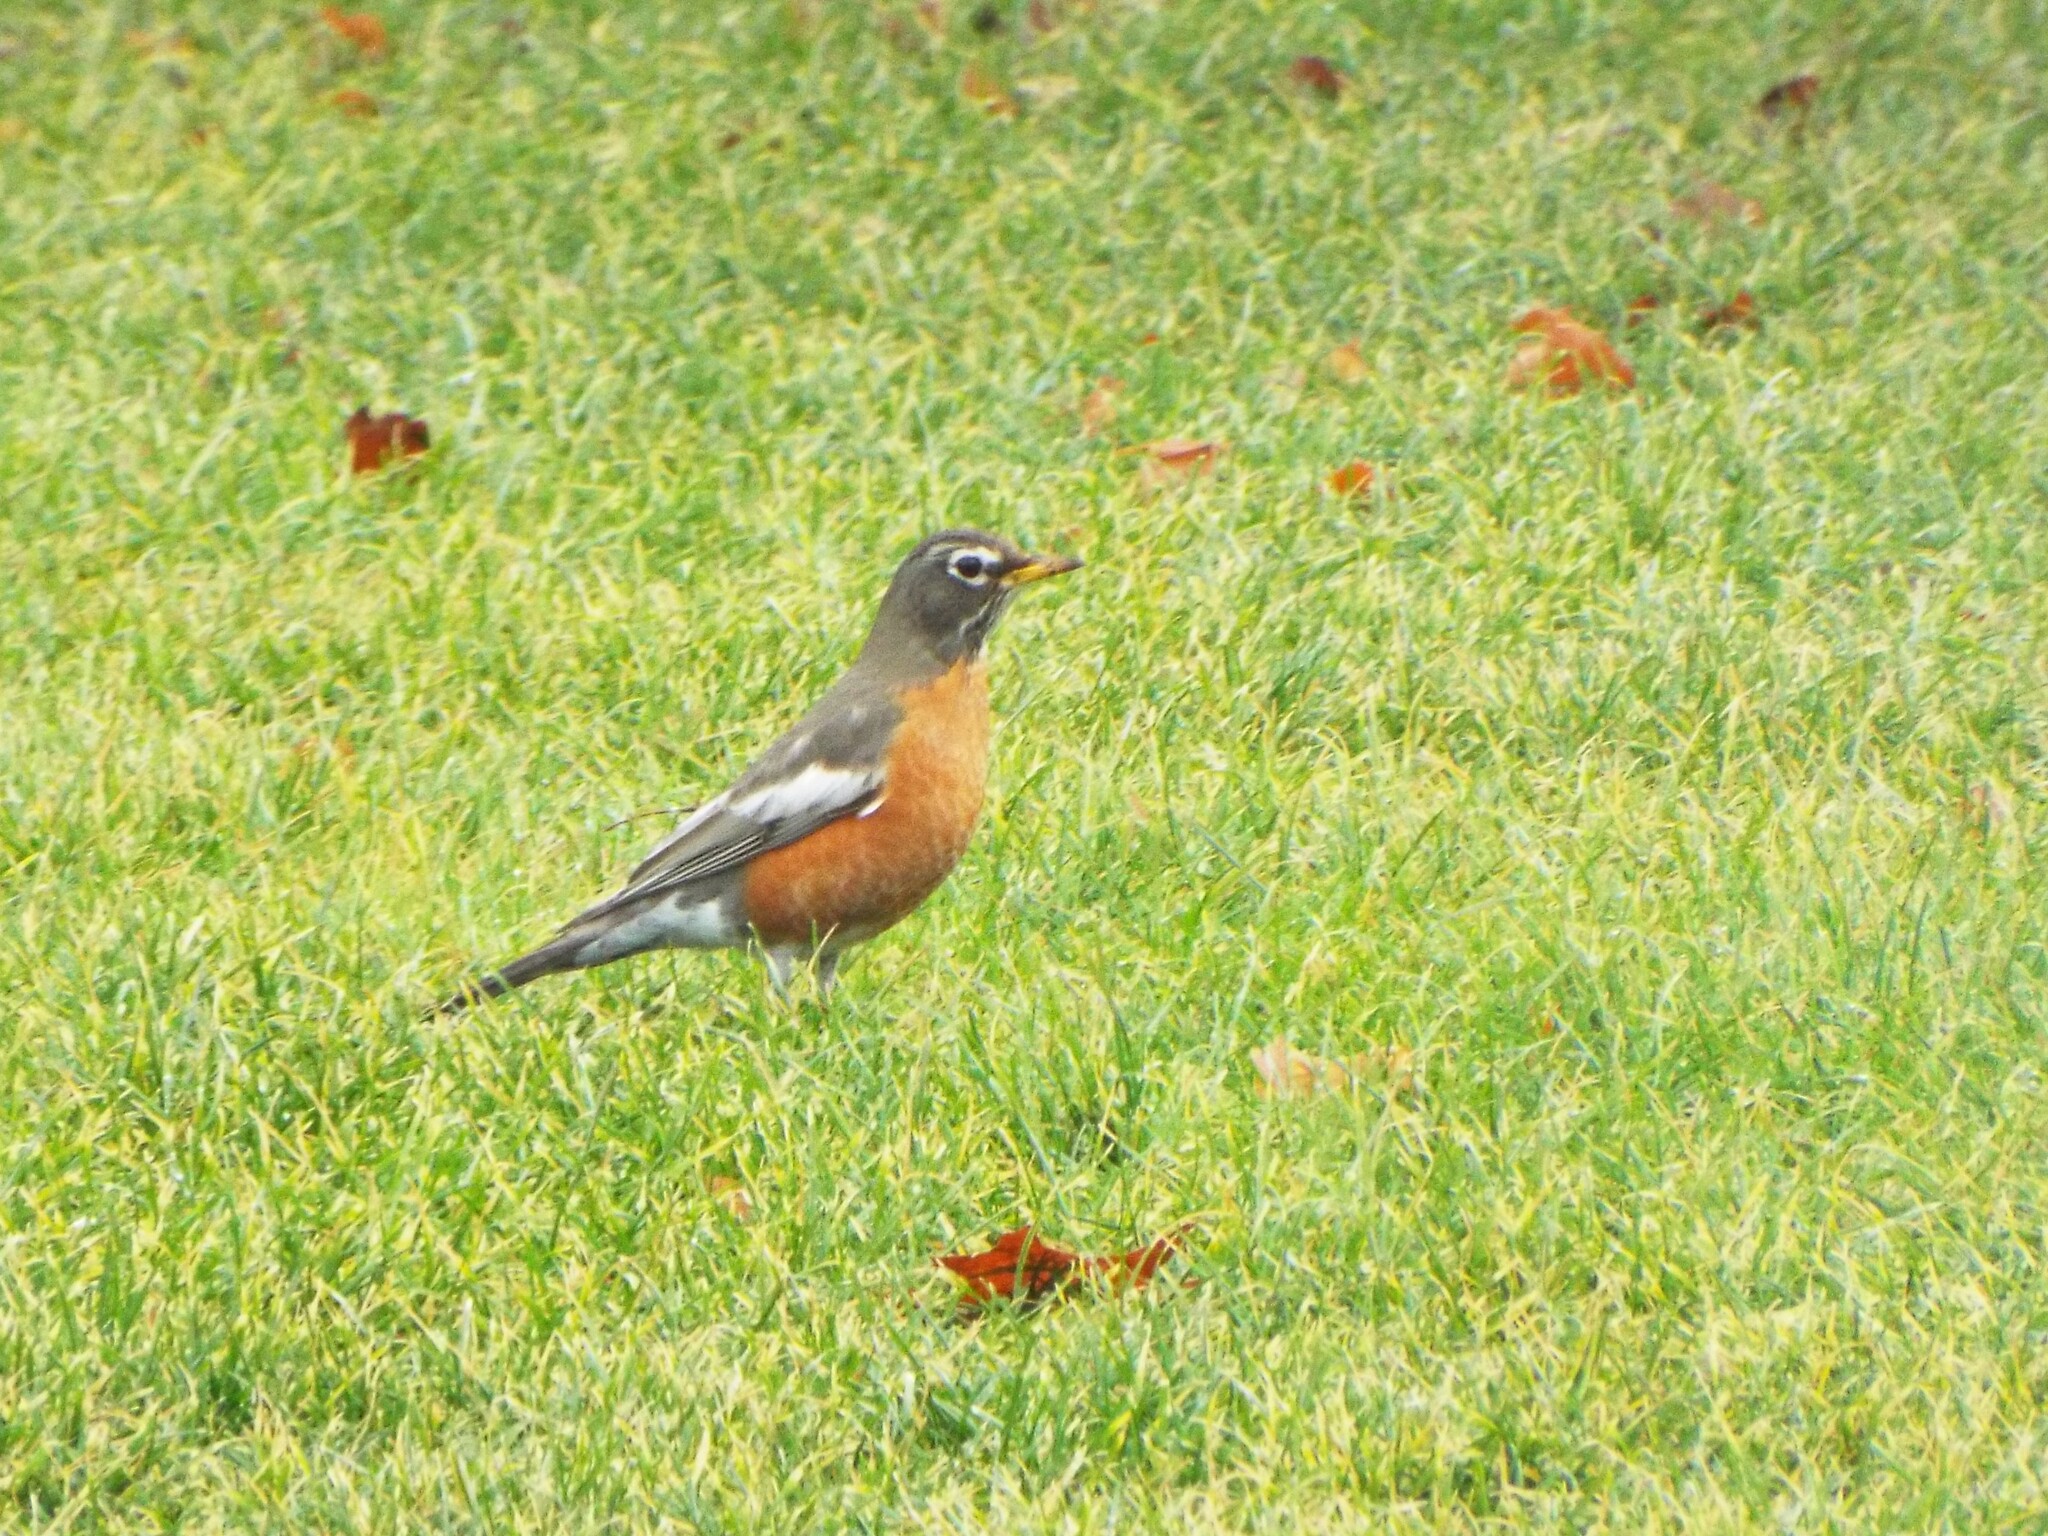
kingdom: Animalia
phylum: Chordata
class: Aves
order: Passeriformes
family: Turdidae
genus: Turdus
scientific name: Turdus migratorius
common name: American robin
